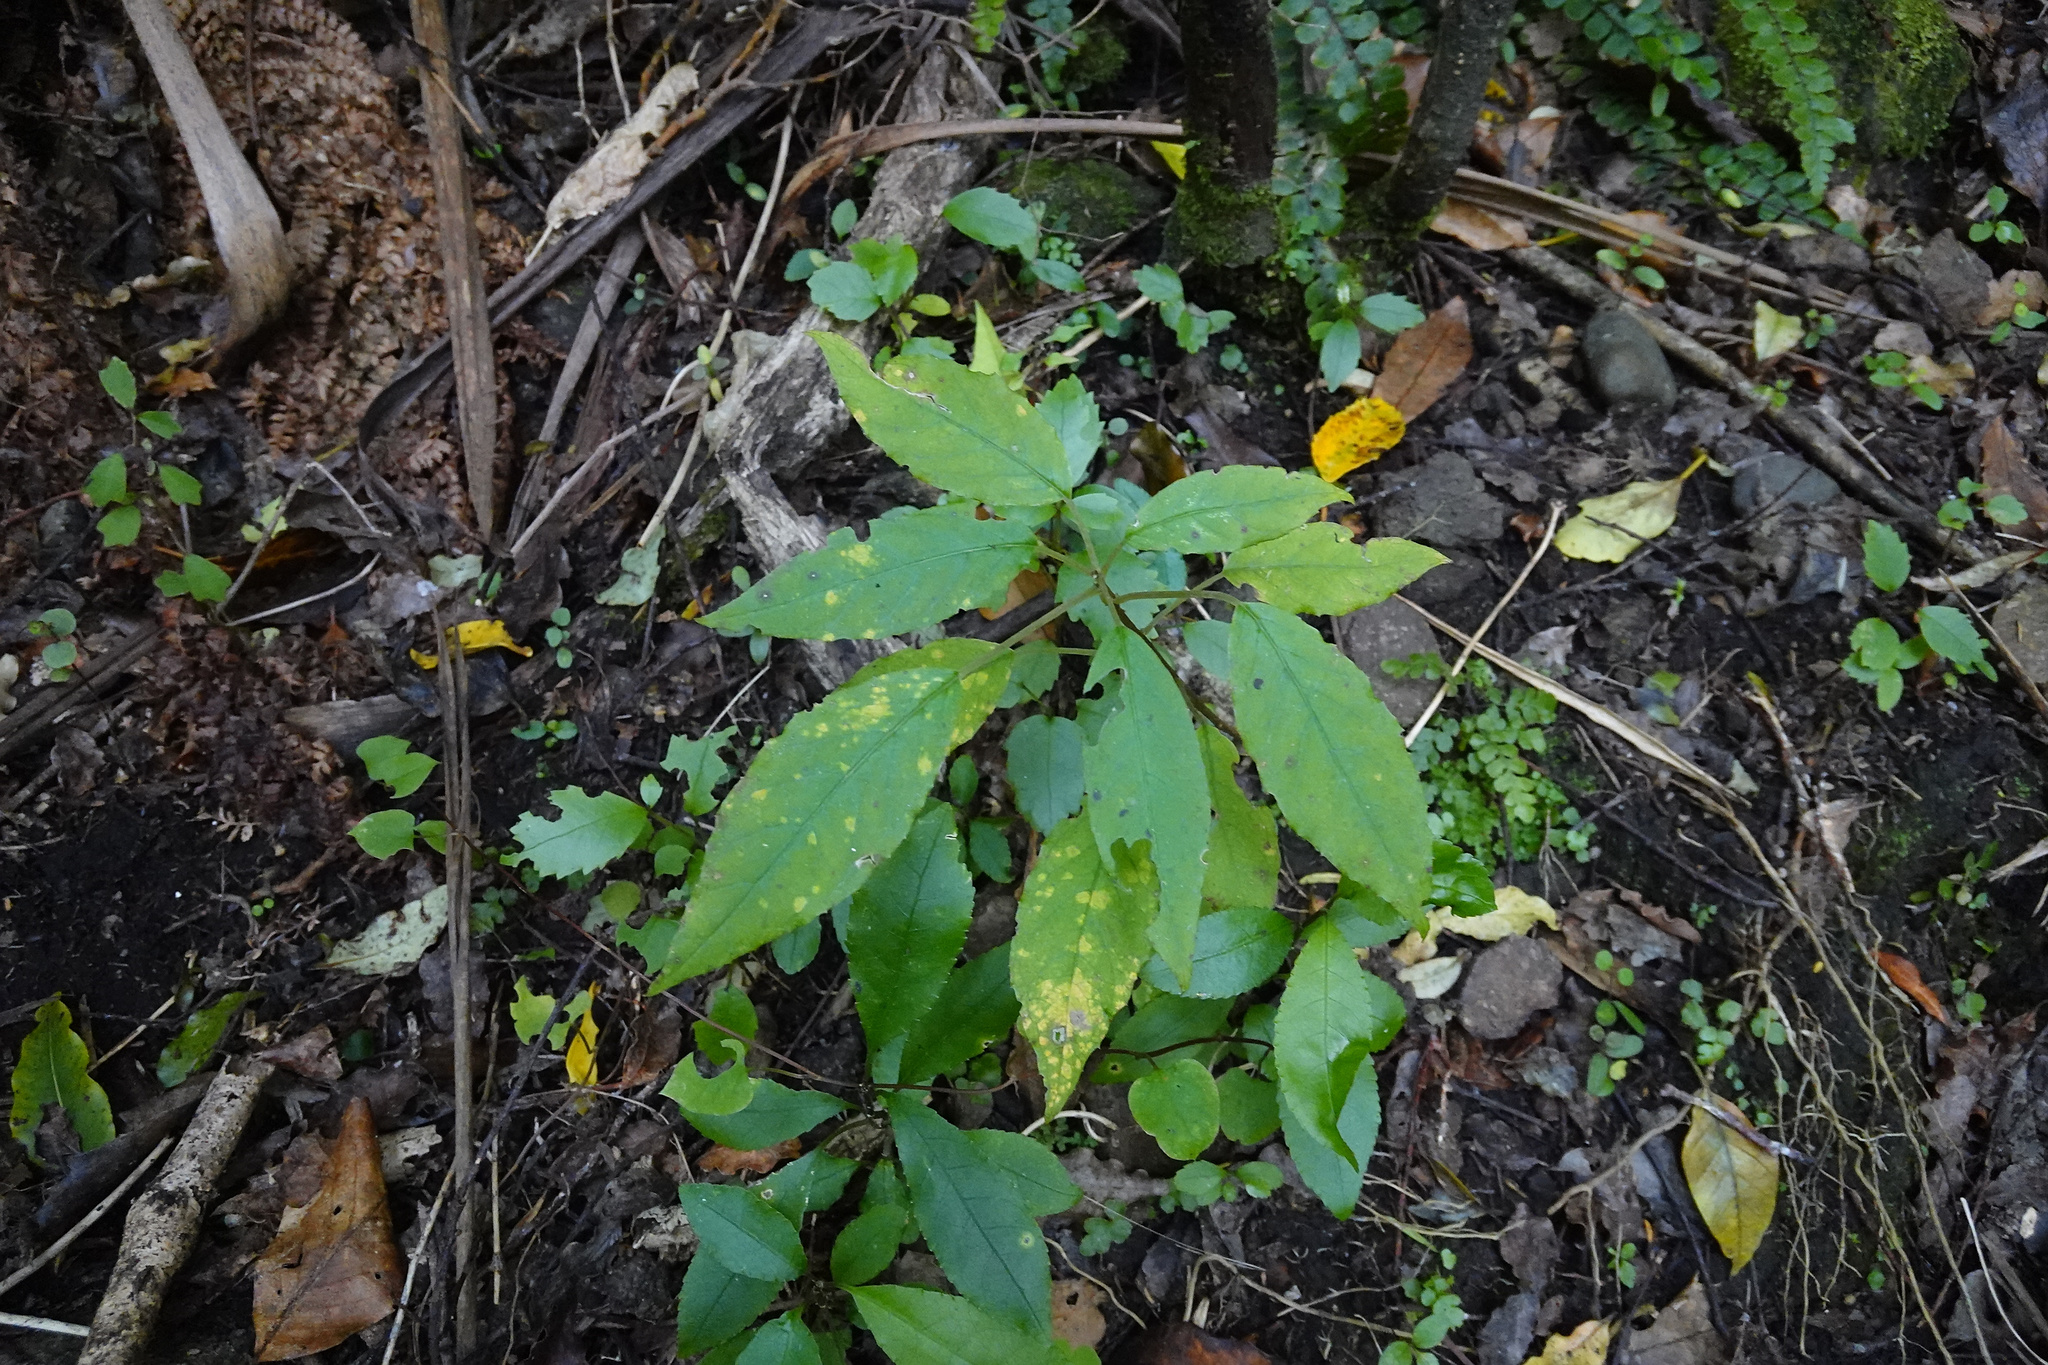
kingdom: Plantae
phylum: Tracheophyta
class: Magnoliopsida
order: Myrtales
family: Onagraceae
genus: Fuchsia
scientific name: Fuchsia excorticata
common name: Tree fuchsia
